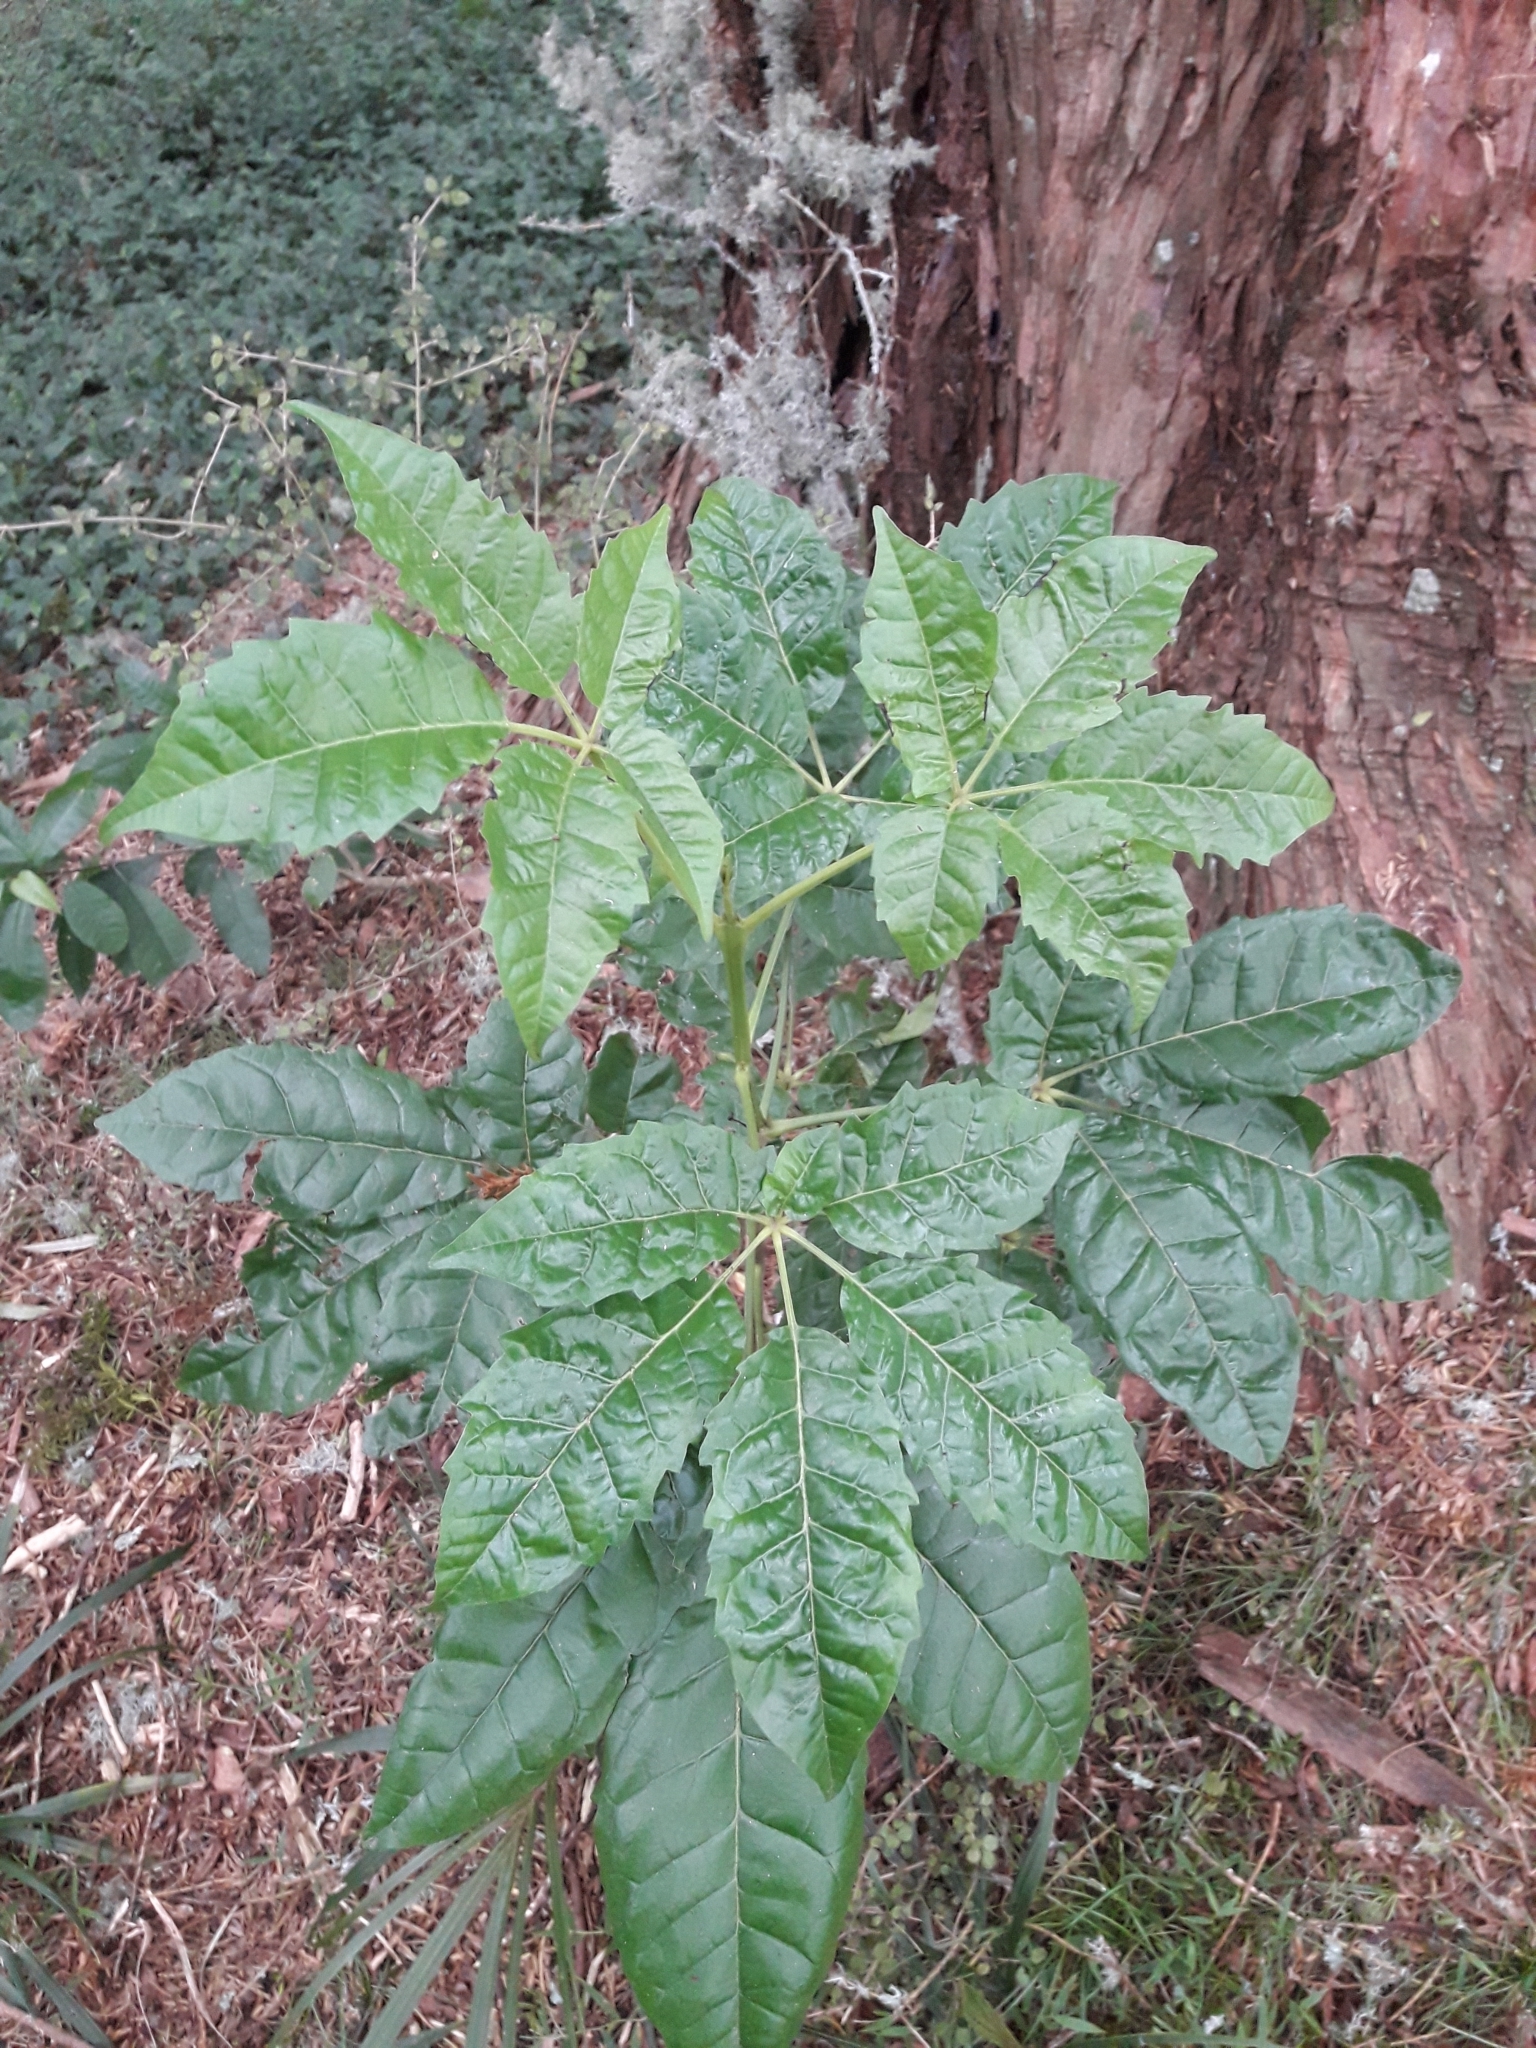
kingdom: Plantae
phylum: Tracheophyta
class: Magnoliopsida
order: Lamiales
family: Lamiaceae
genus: Vitex
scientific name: Vitex lucens
